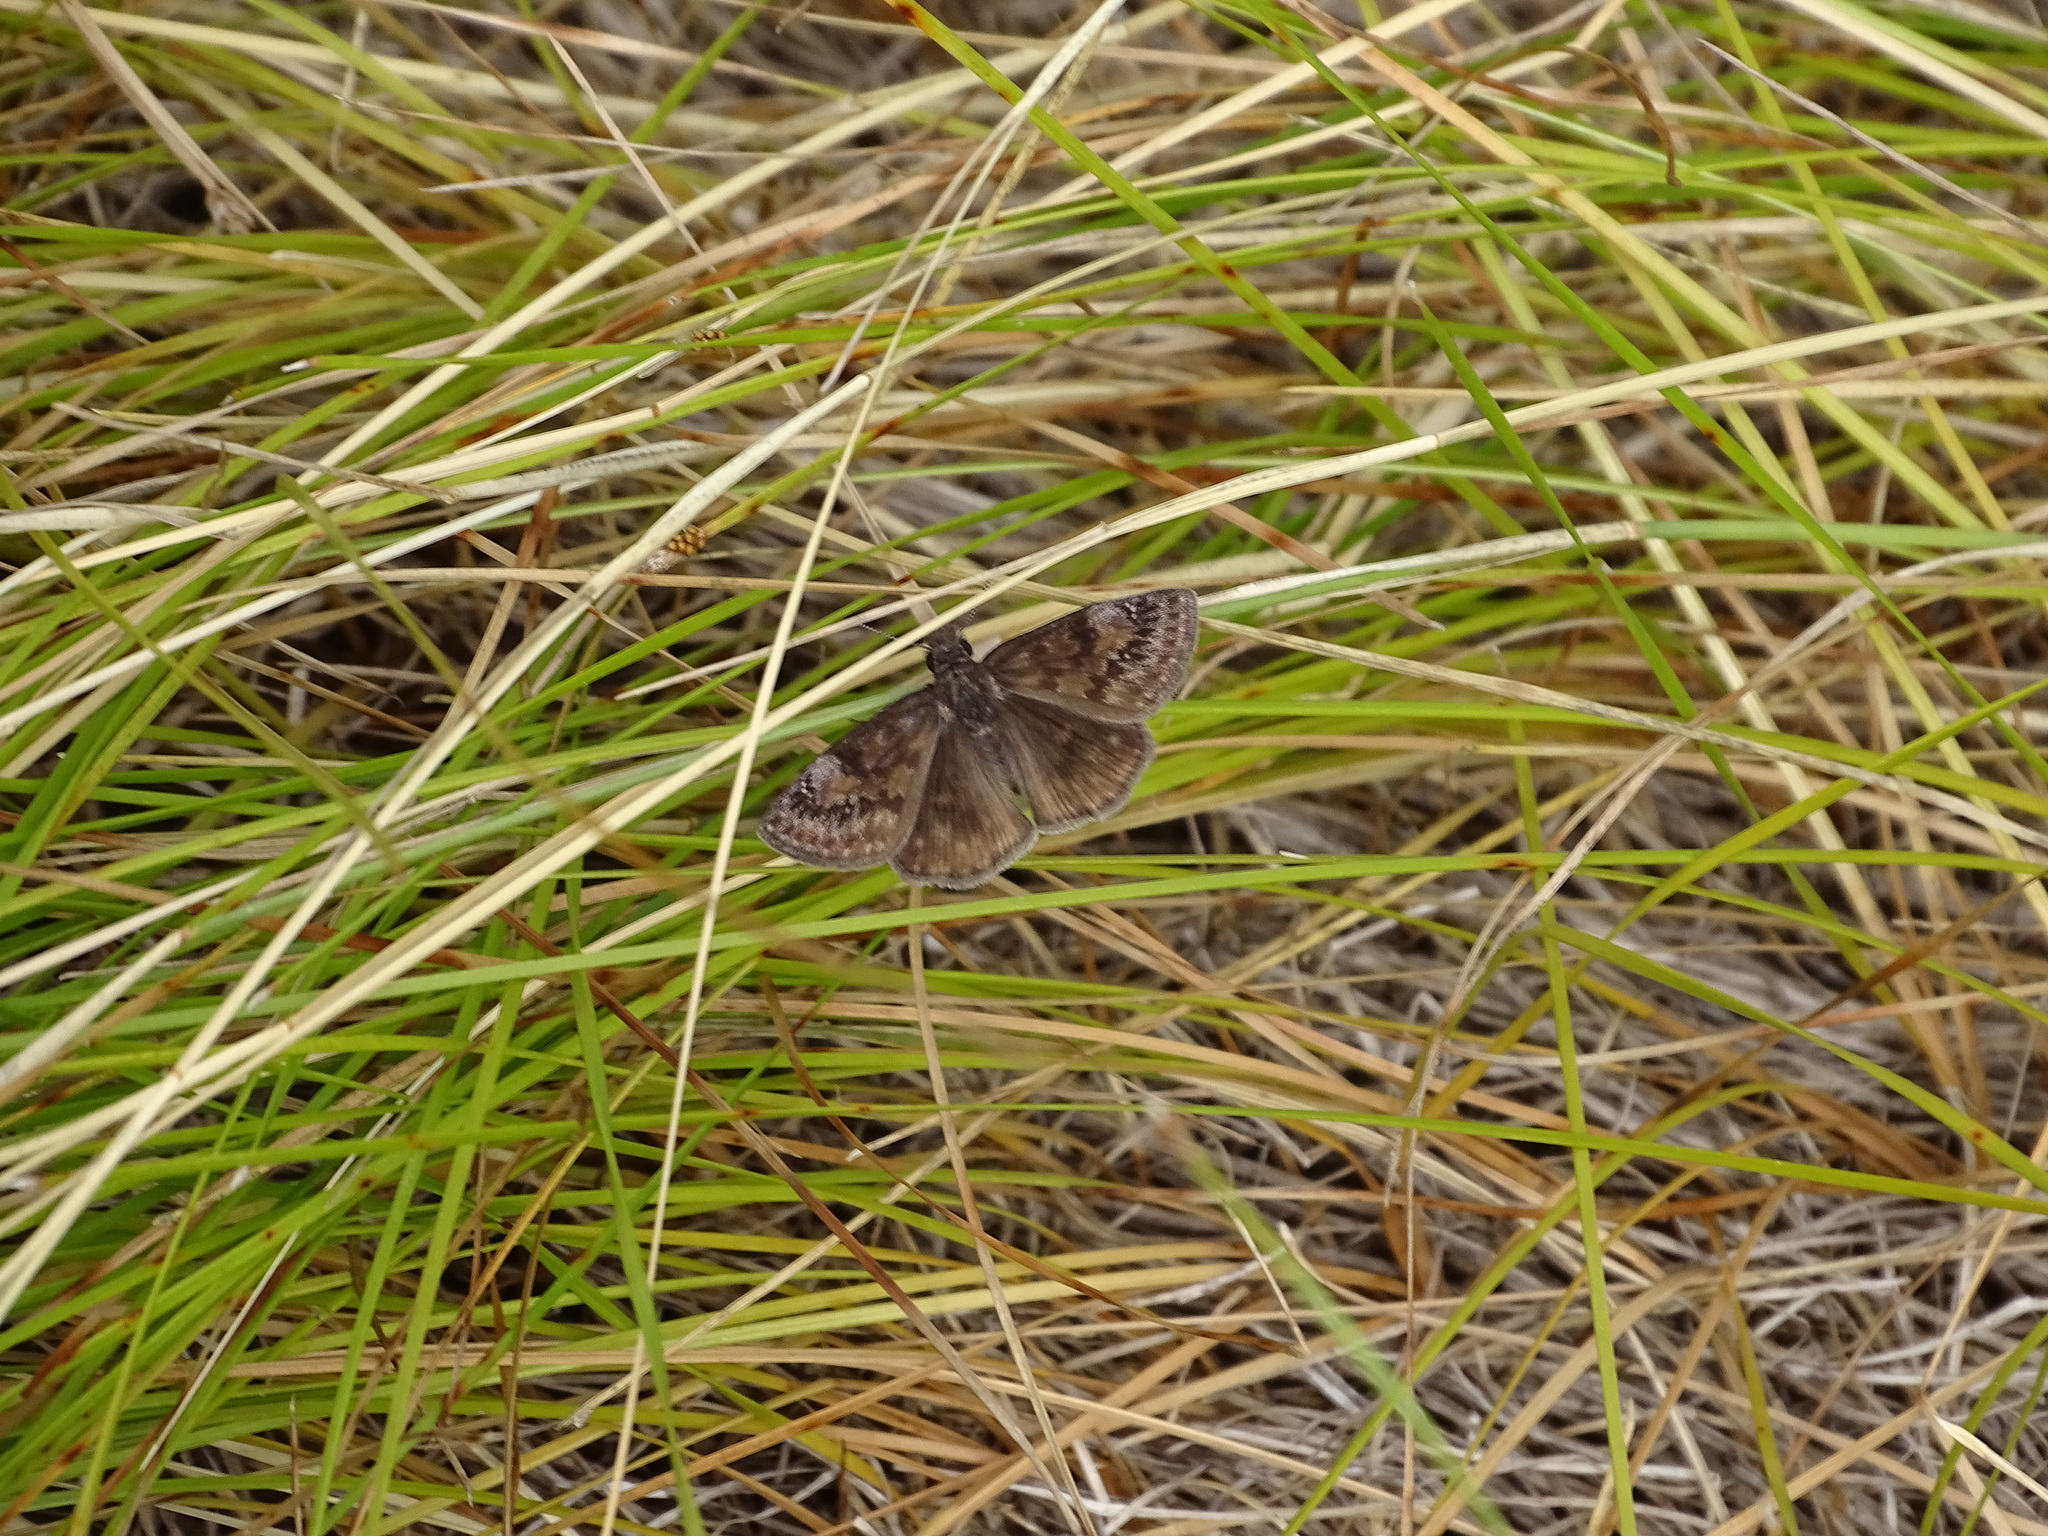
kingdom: Animalia
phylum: Arthropoda
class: Insecta
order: Lepidoptera
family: Hesperiidae
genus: Erynnis
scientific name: Erynnis baptisiae
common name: Wild indigo duskywing
